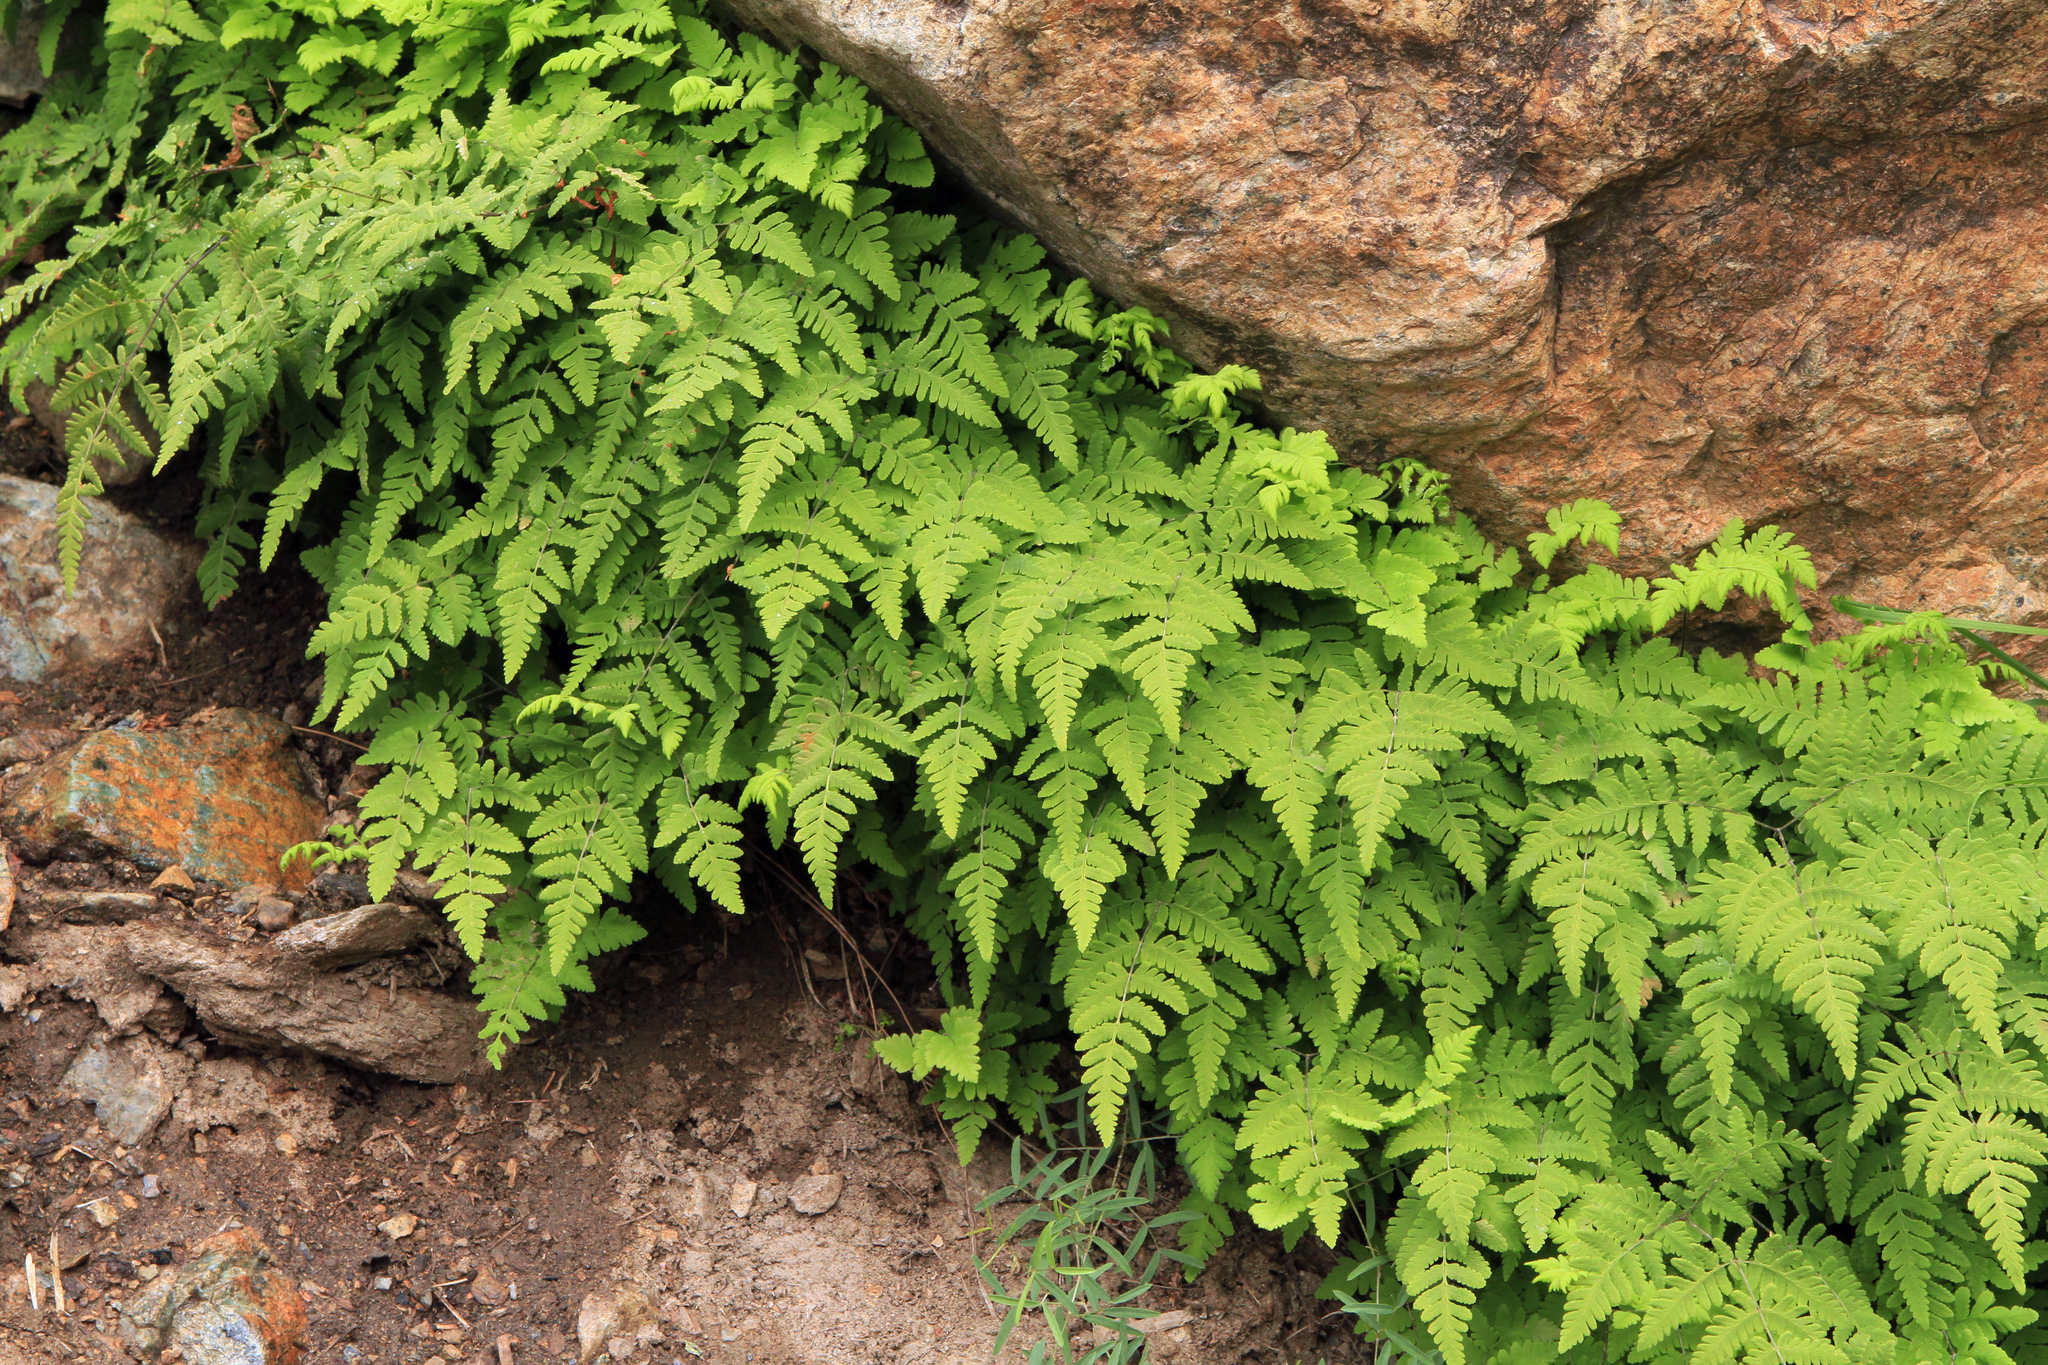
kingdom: Plantae
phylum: Tracheophyta
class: Polypodiopsida
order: Polypodiales
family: Cystopteridaceae
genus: Gymnocarpium
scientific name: Gymnocarpium jessoense
